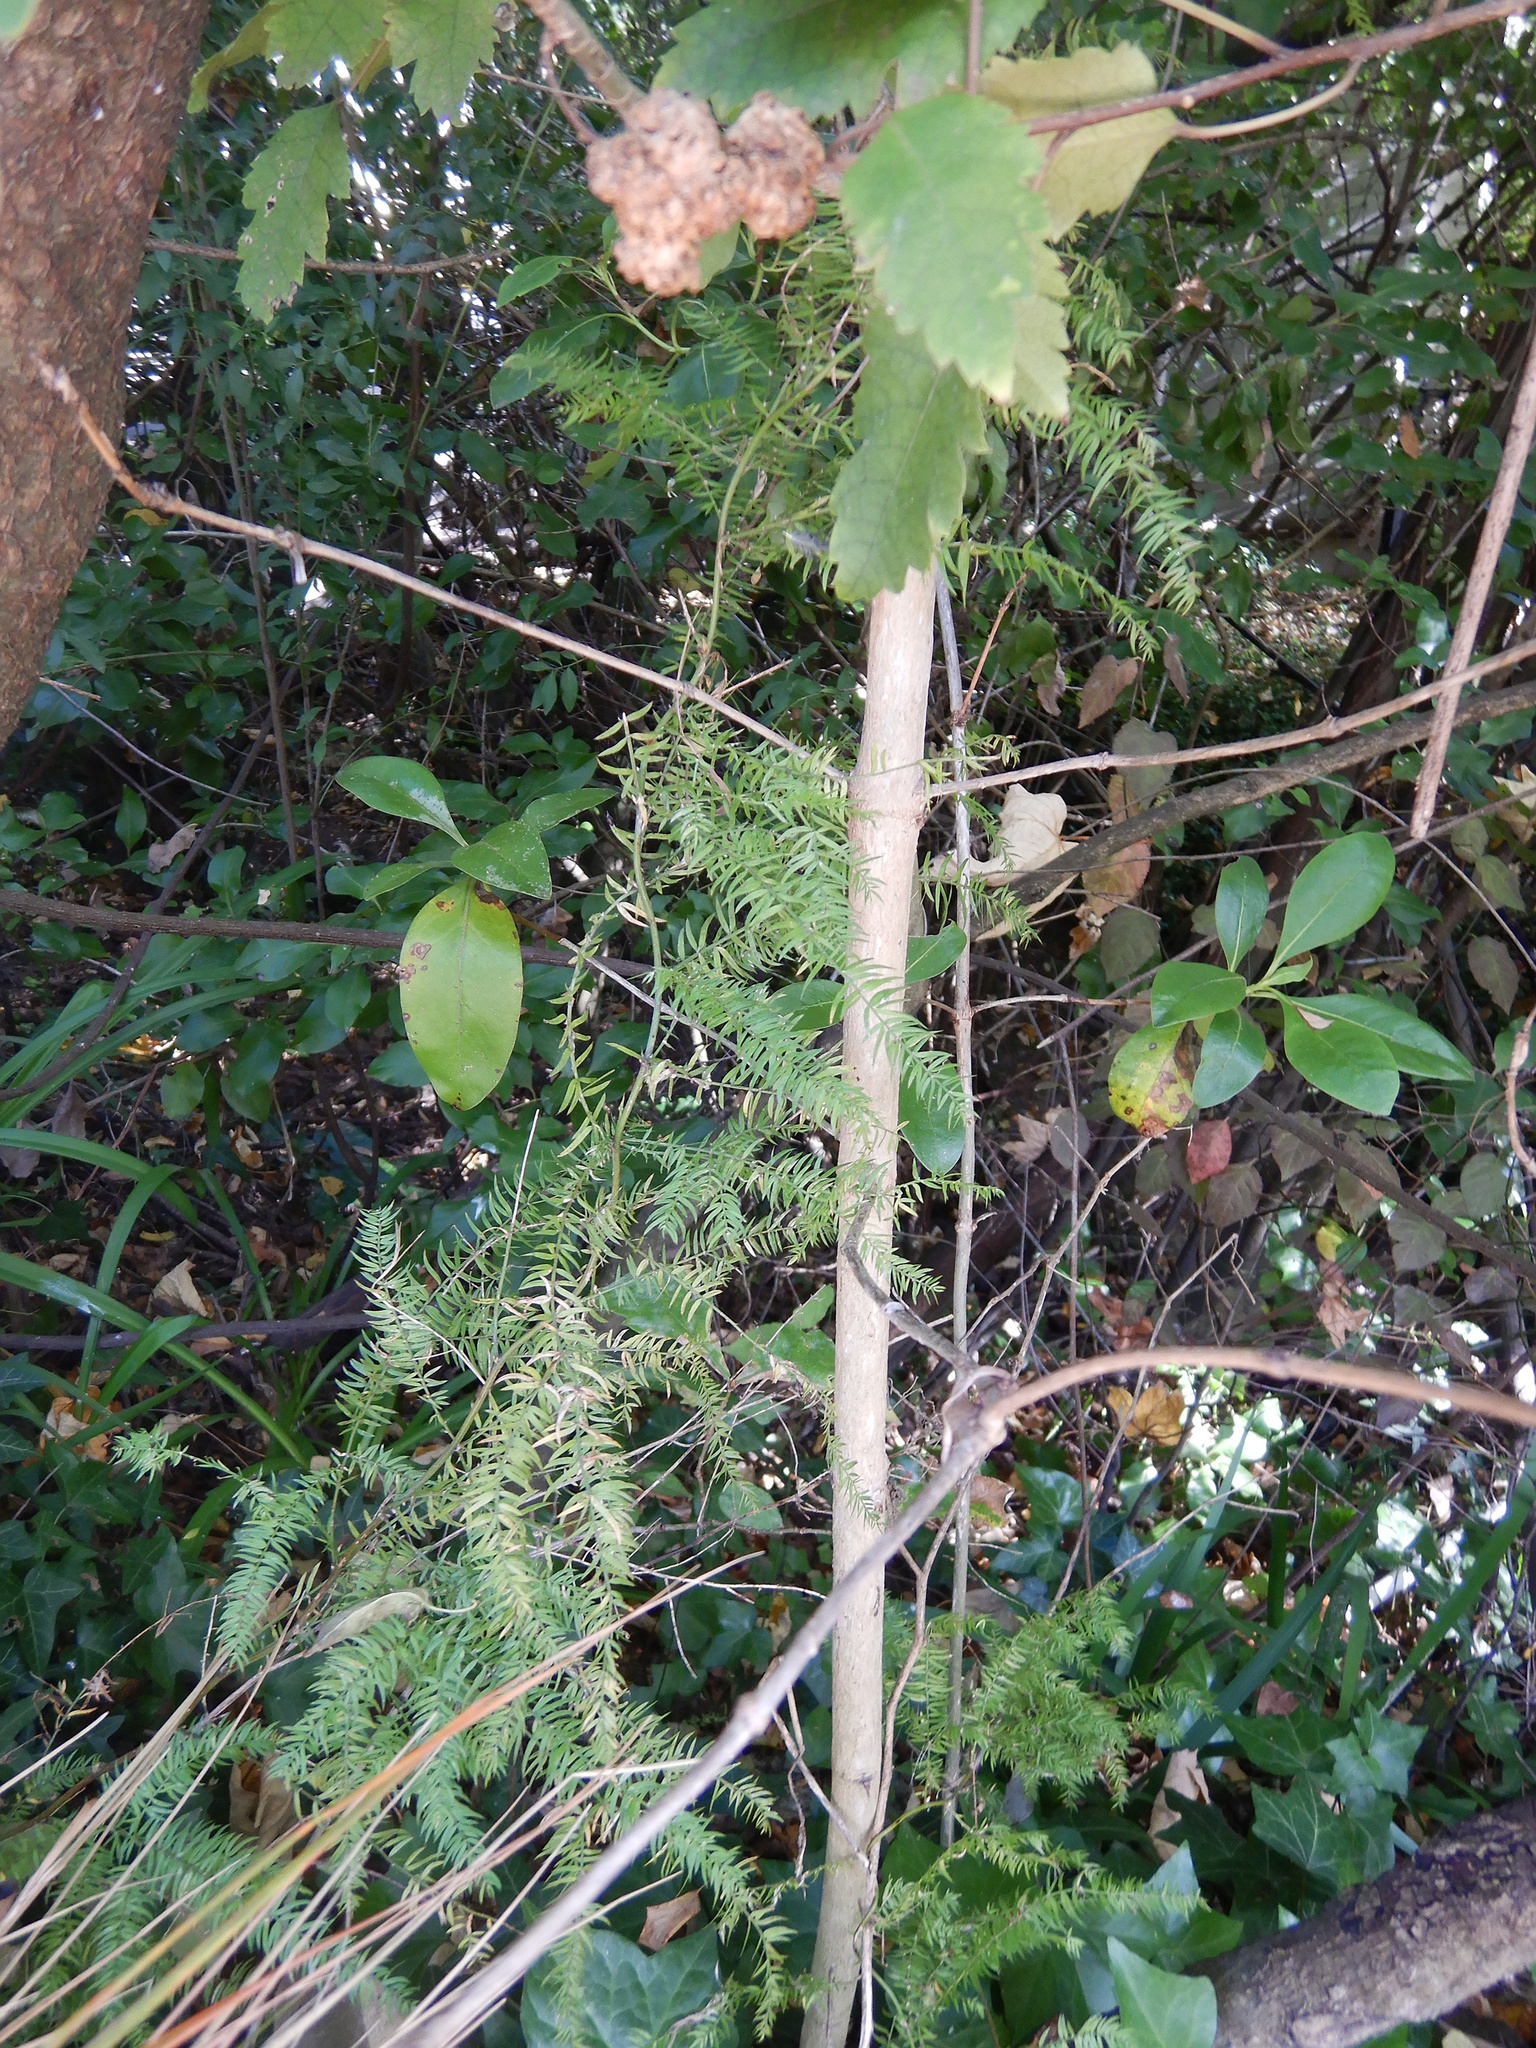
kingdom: Plantae
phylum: Tracheophyta
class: Liliopsida
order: Asparagales
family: Asparagaceae
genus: Asparagus
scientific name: Asparagus scandens
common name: Asparagus-fern
